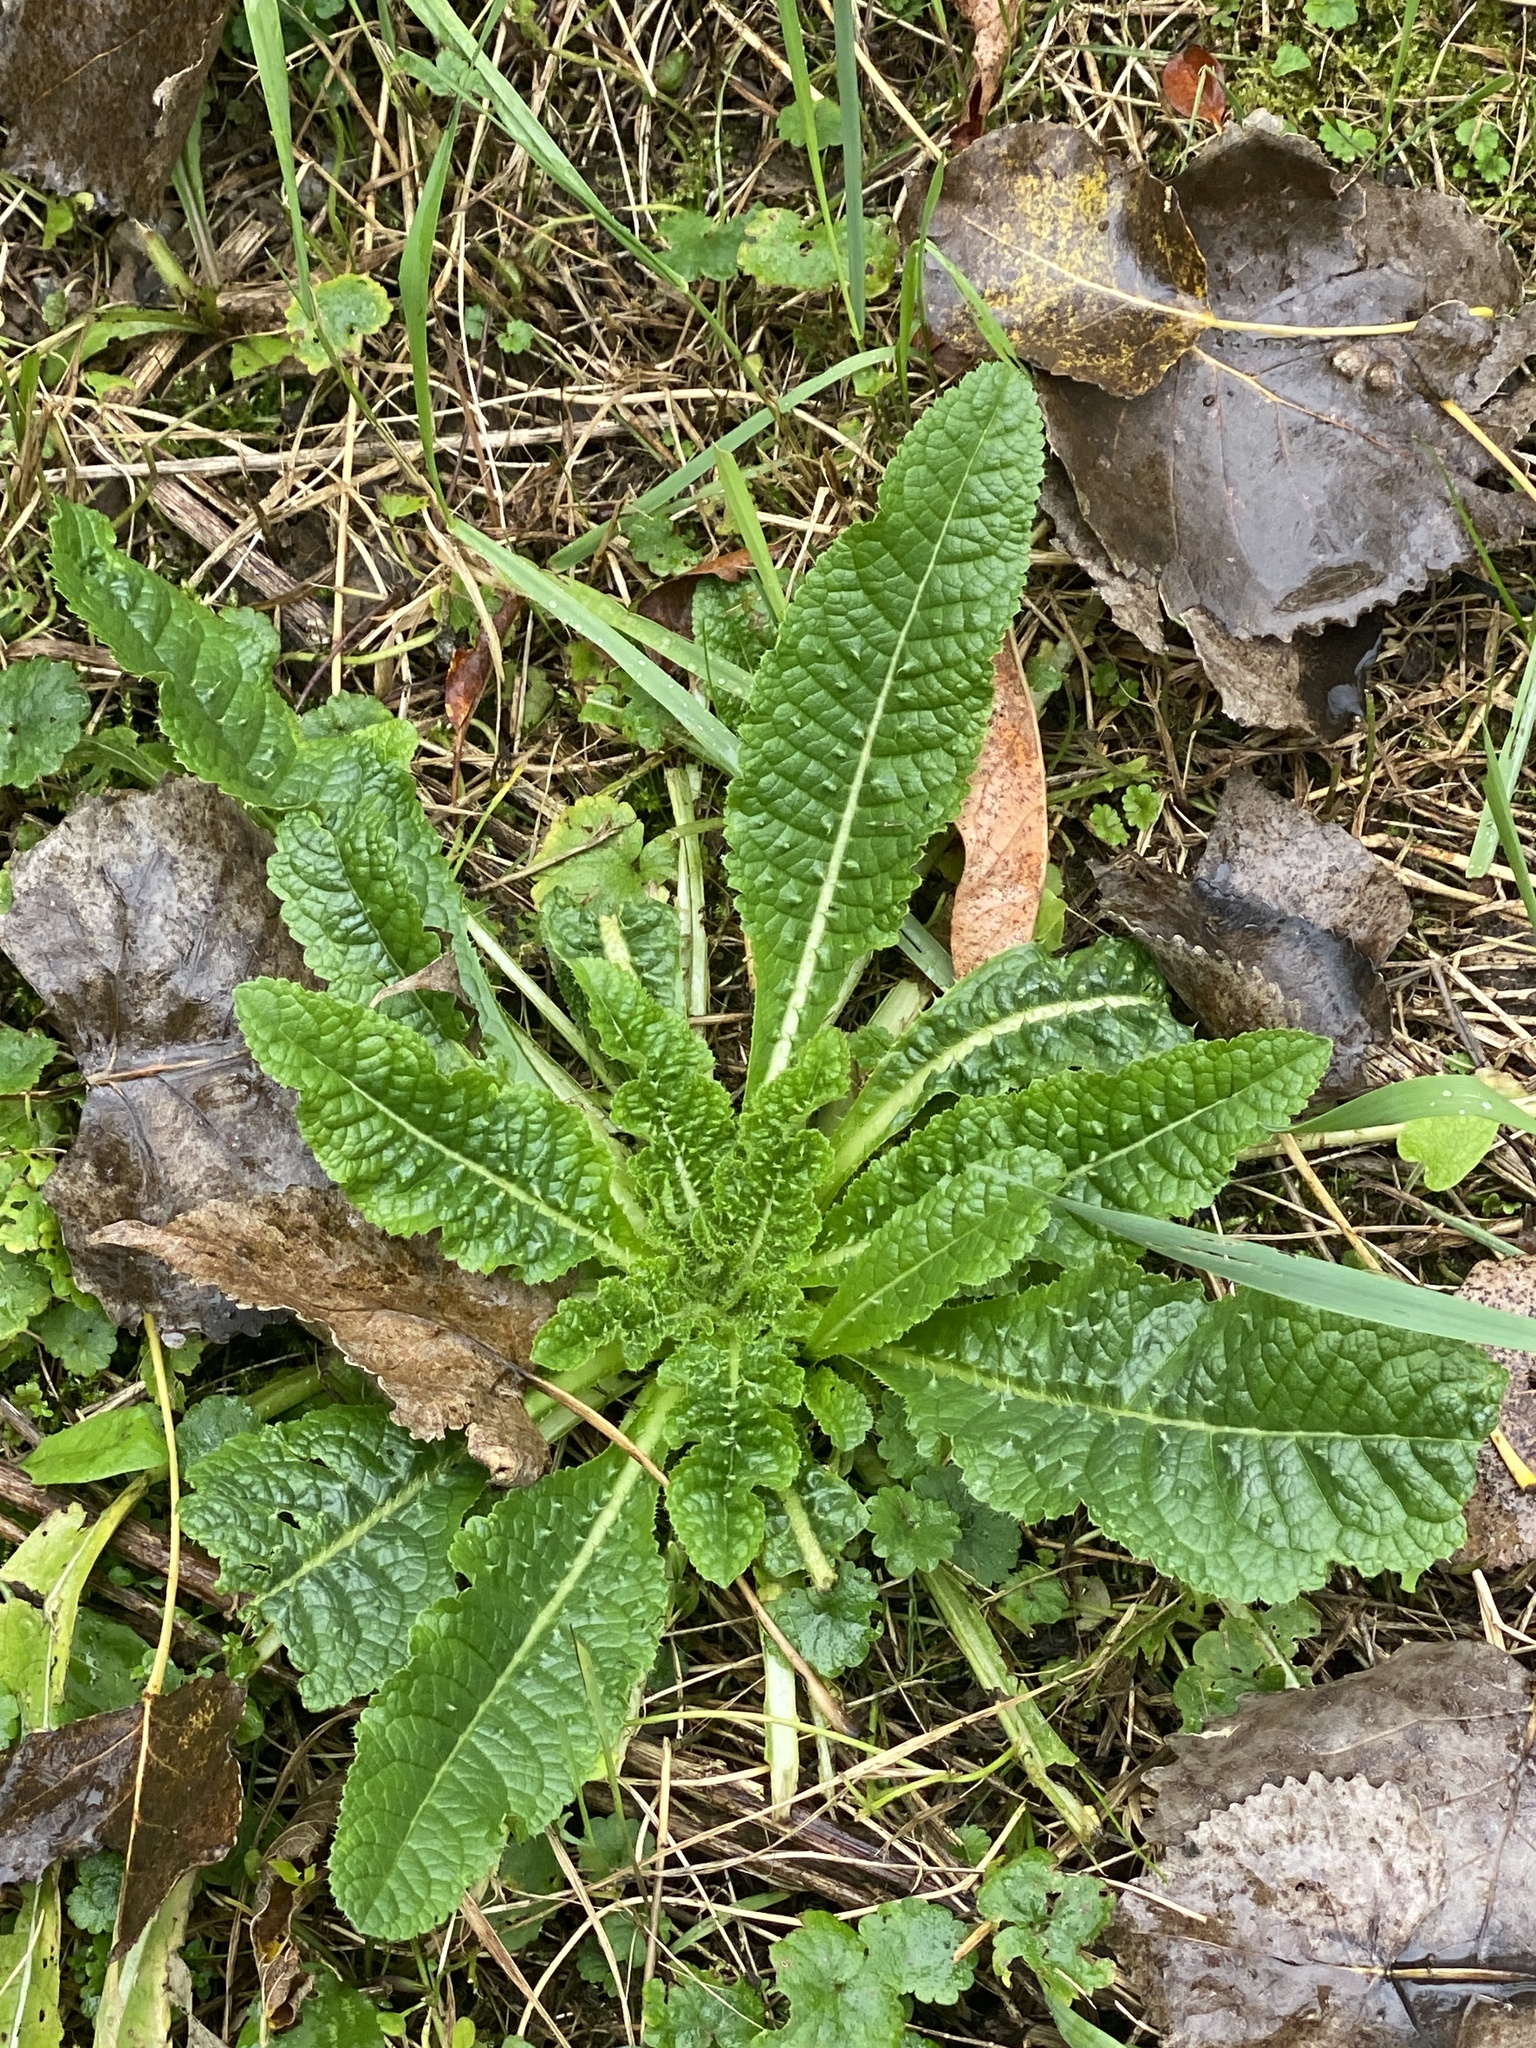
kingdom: Plantae
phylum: Tracheophyta
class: Magnoliopsida
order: Dipsacales
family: Caprifoliaceae
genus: Dipsacus
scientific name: Dipsacus fullonum
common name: Teasel
